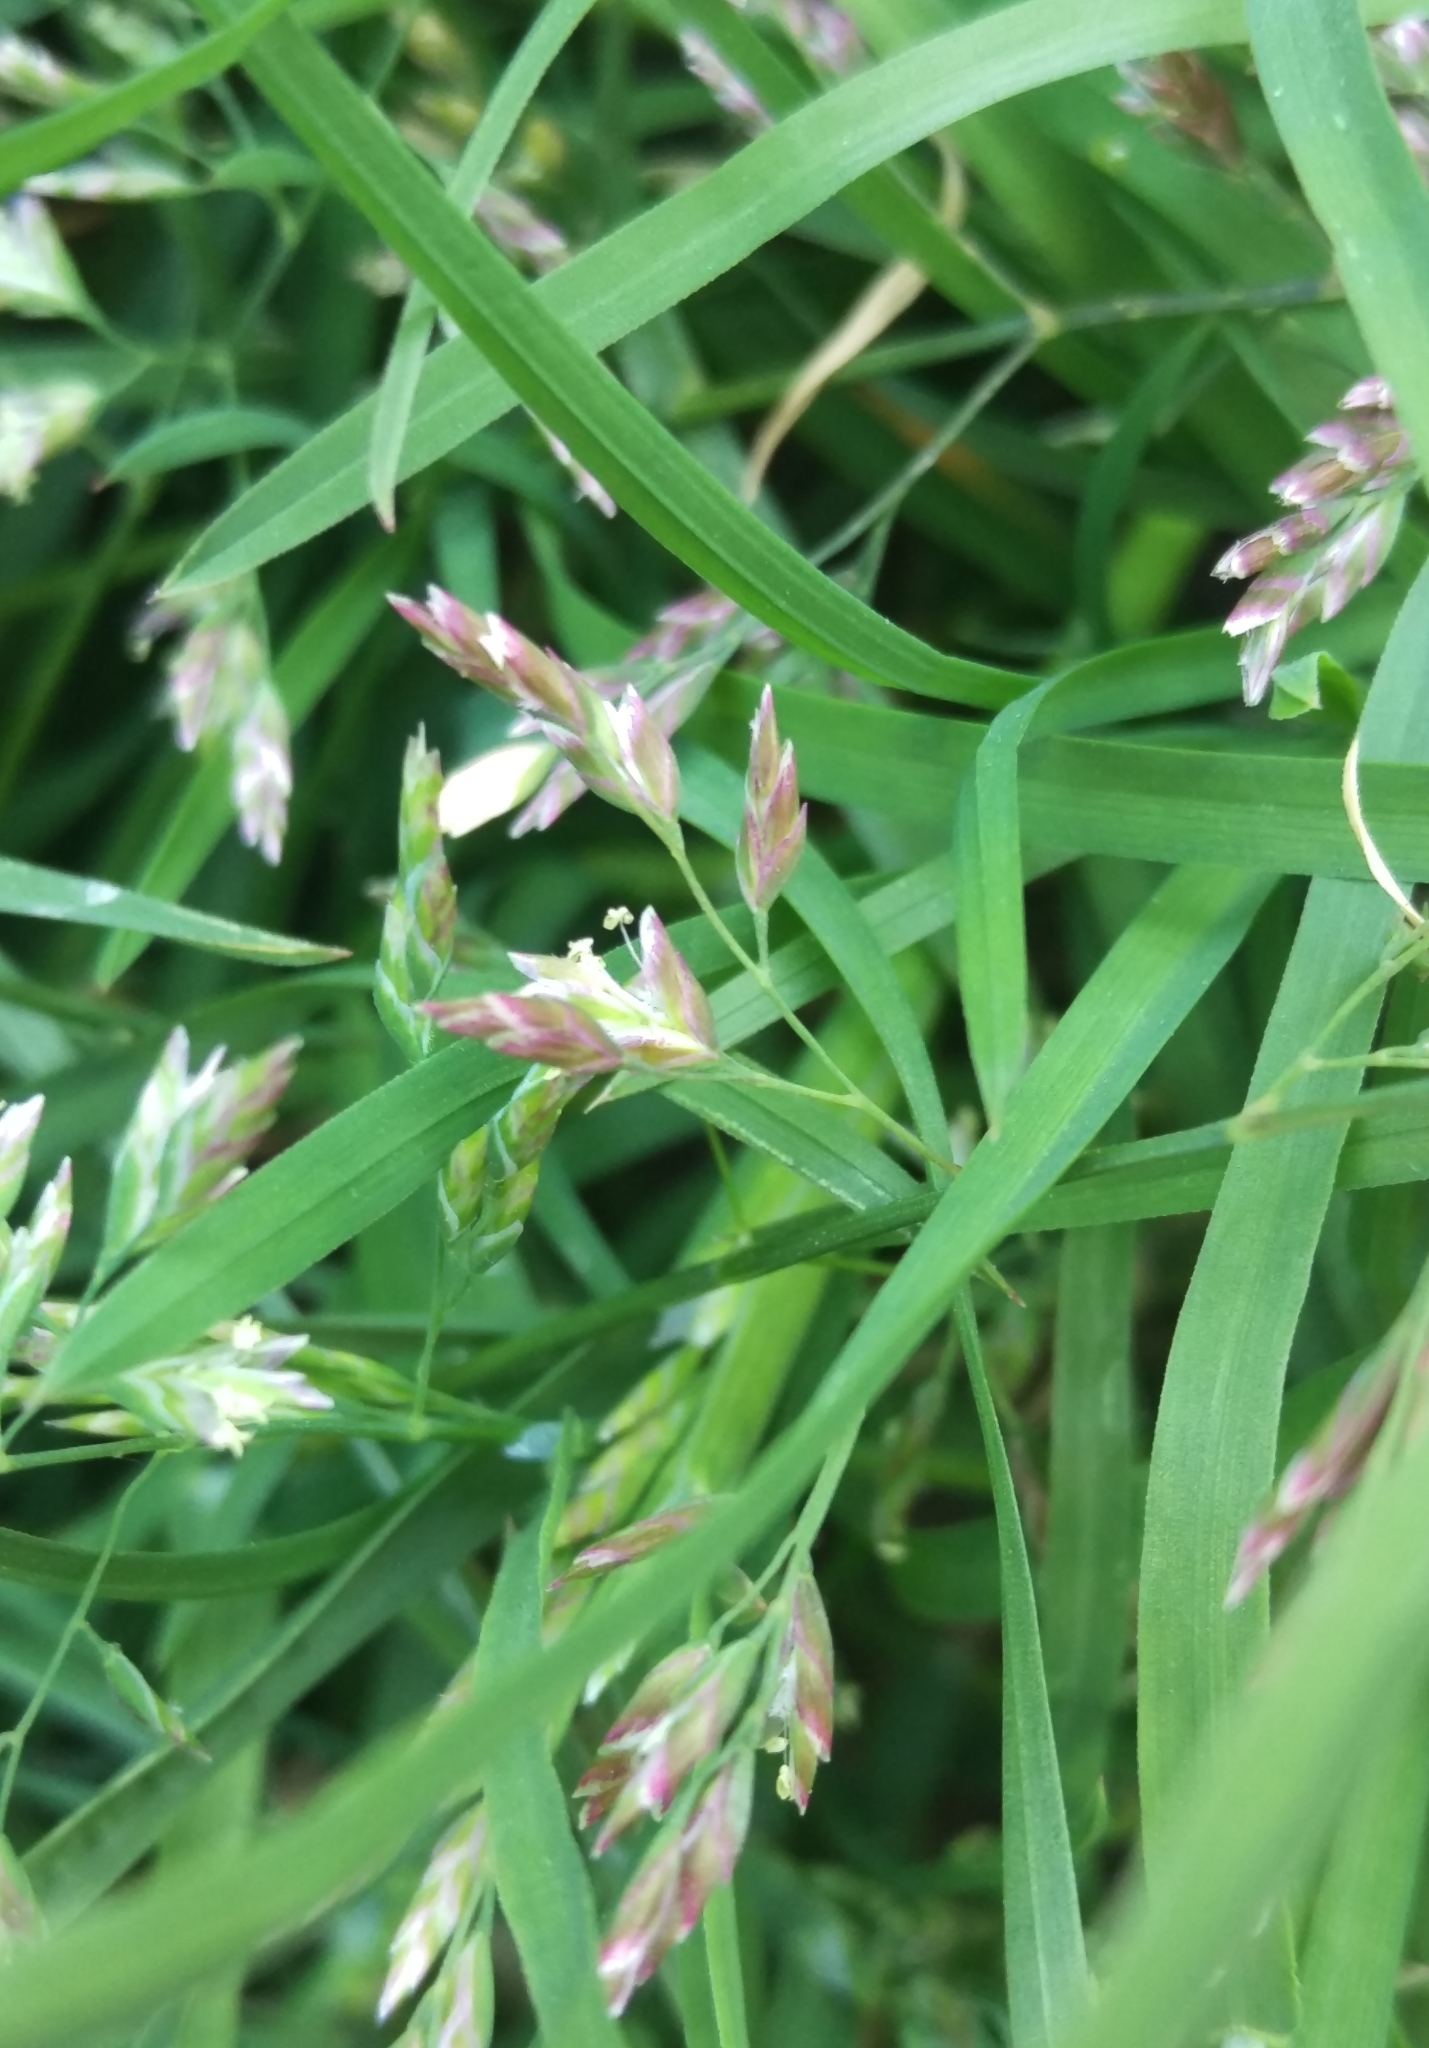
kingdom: Plantae
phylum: Tracheophyta
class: Liliopsida
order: Poales
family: Poaceae
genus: Poa
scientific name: Poa annua
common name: Annual bluegrass
